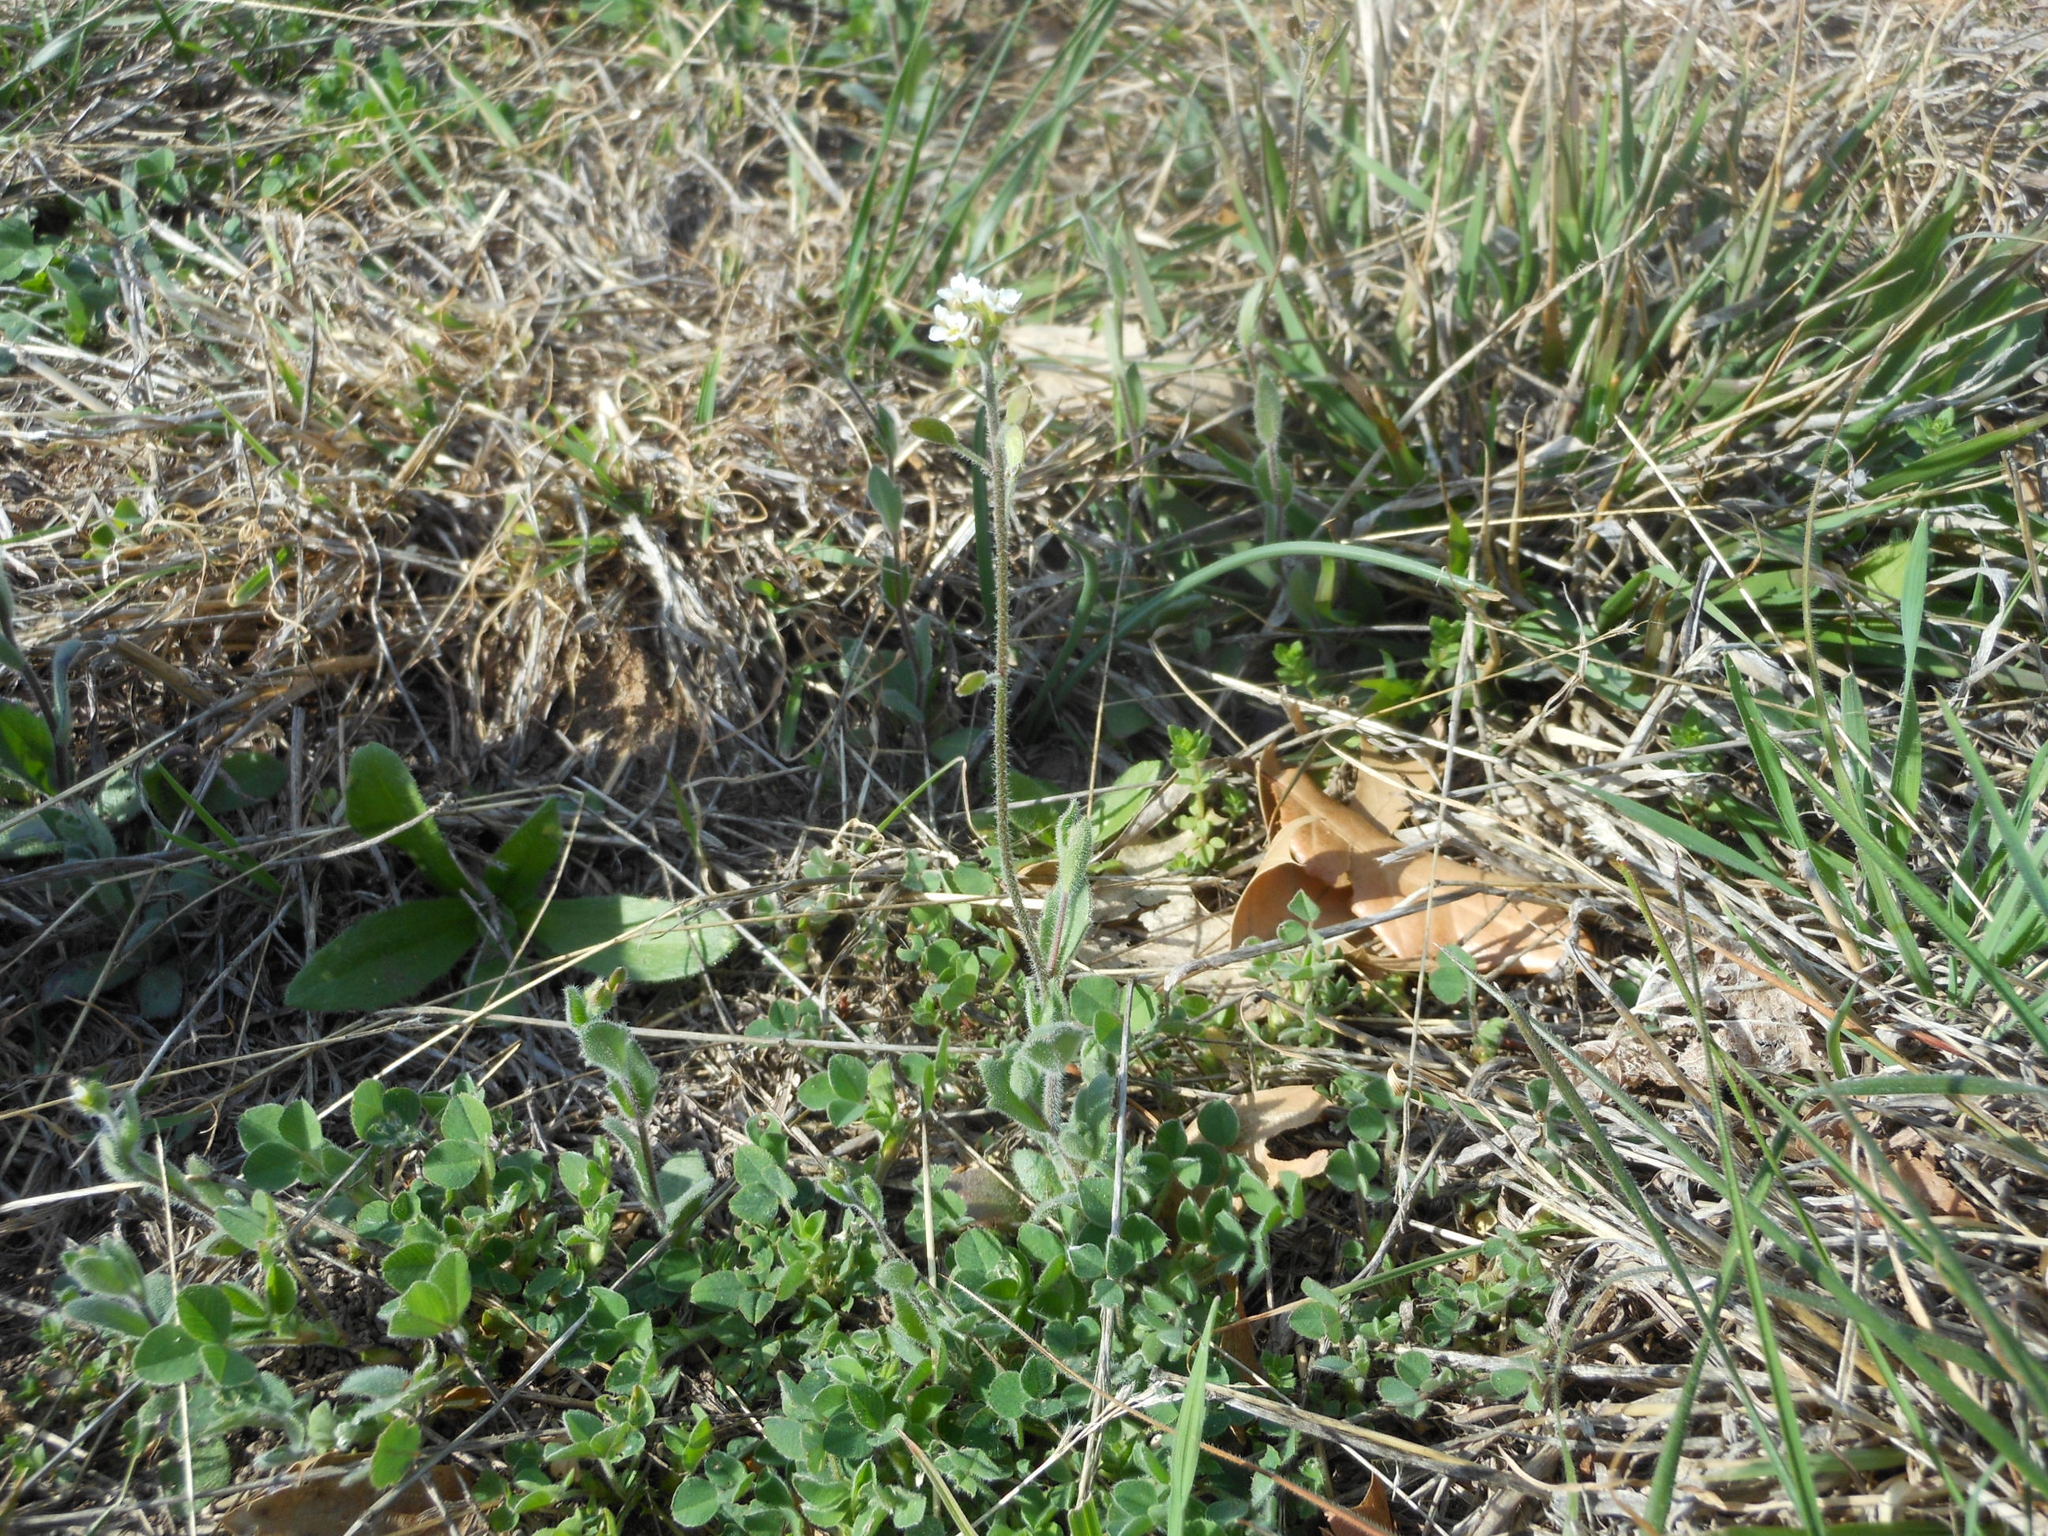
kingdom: Plantae
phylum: Tracheophyta
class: Magnoliopsida
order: Brassicales
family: Brassicaceae
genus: Tomostima
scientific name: Tomostima platycarpa
